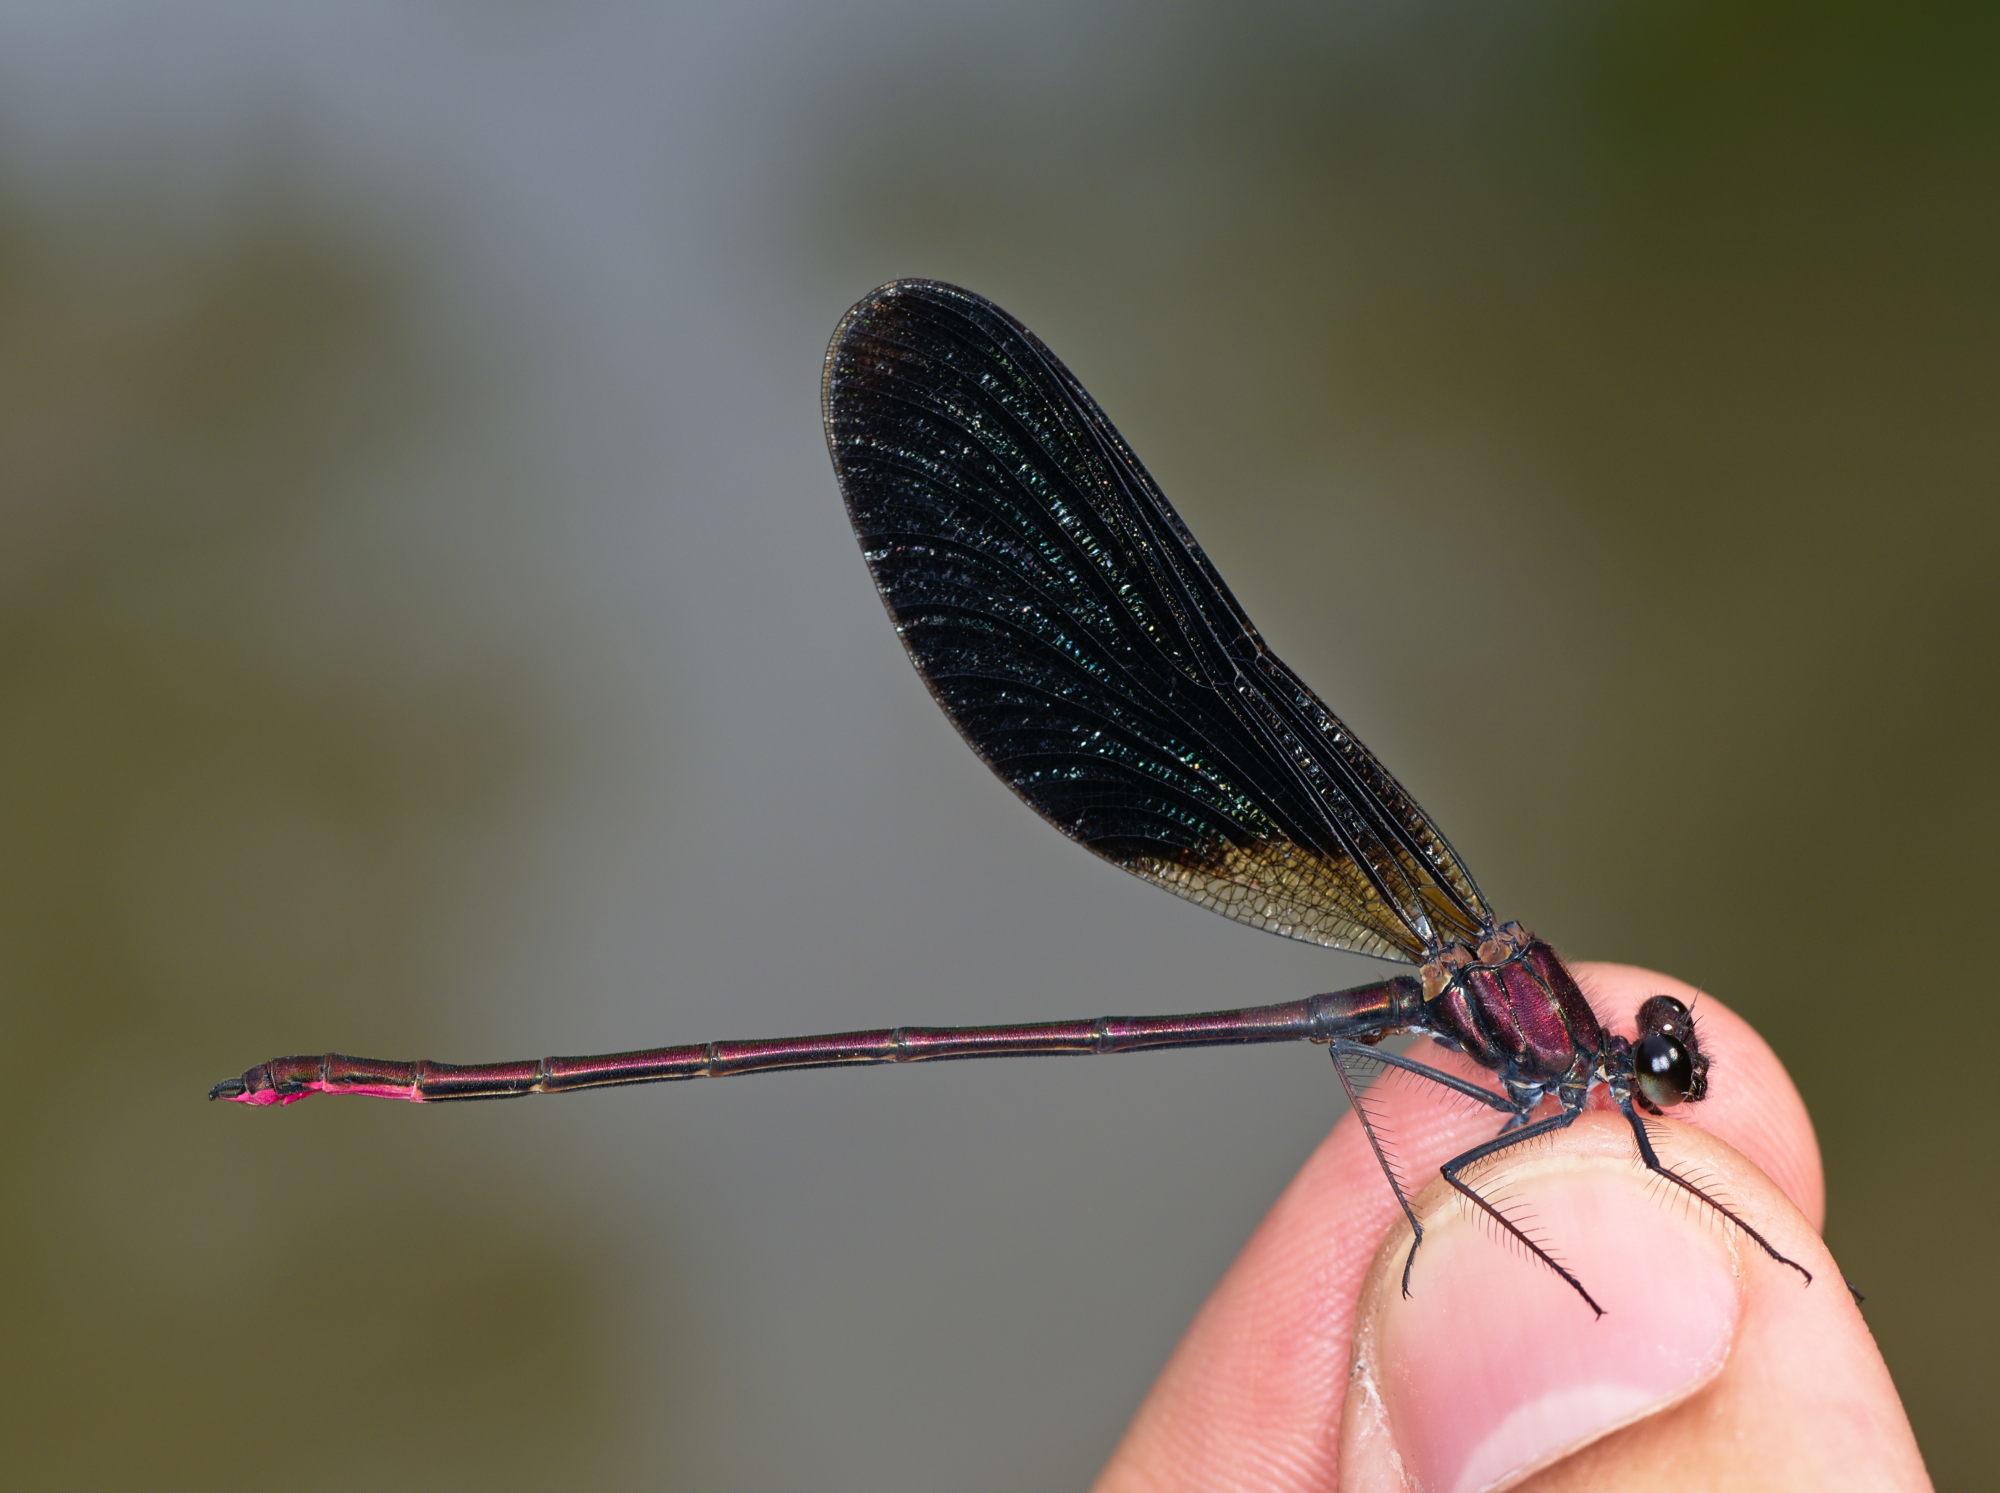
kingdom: Animalia
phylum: Arthropoda
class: Insecta
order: Odonata
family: Calopterygidae
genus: Calopteryx
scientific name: Calopteryx haemorrhoidalis
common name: Copper demoiselle
